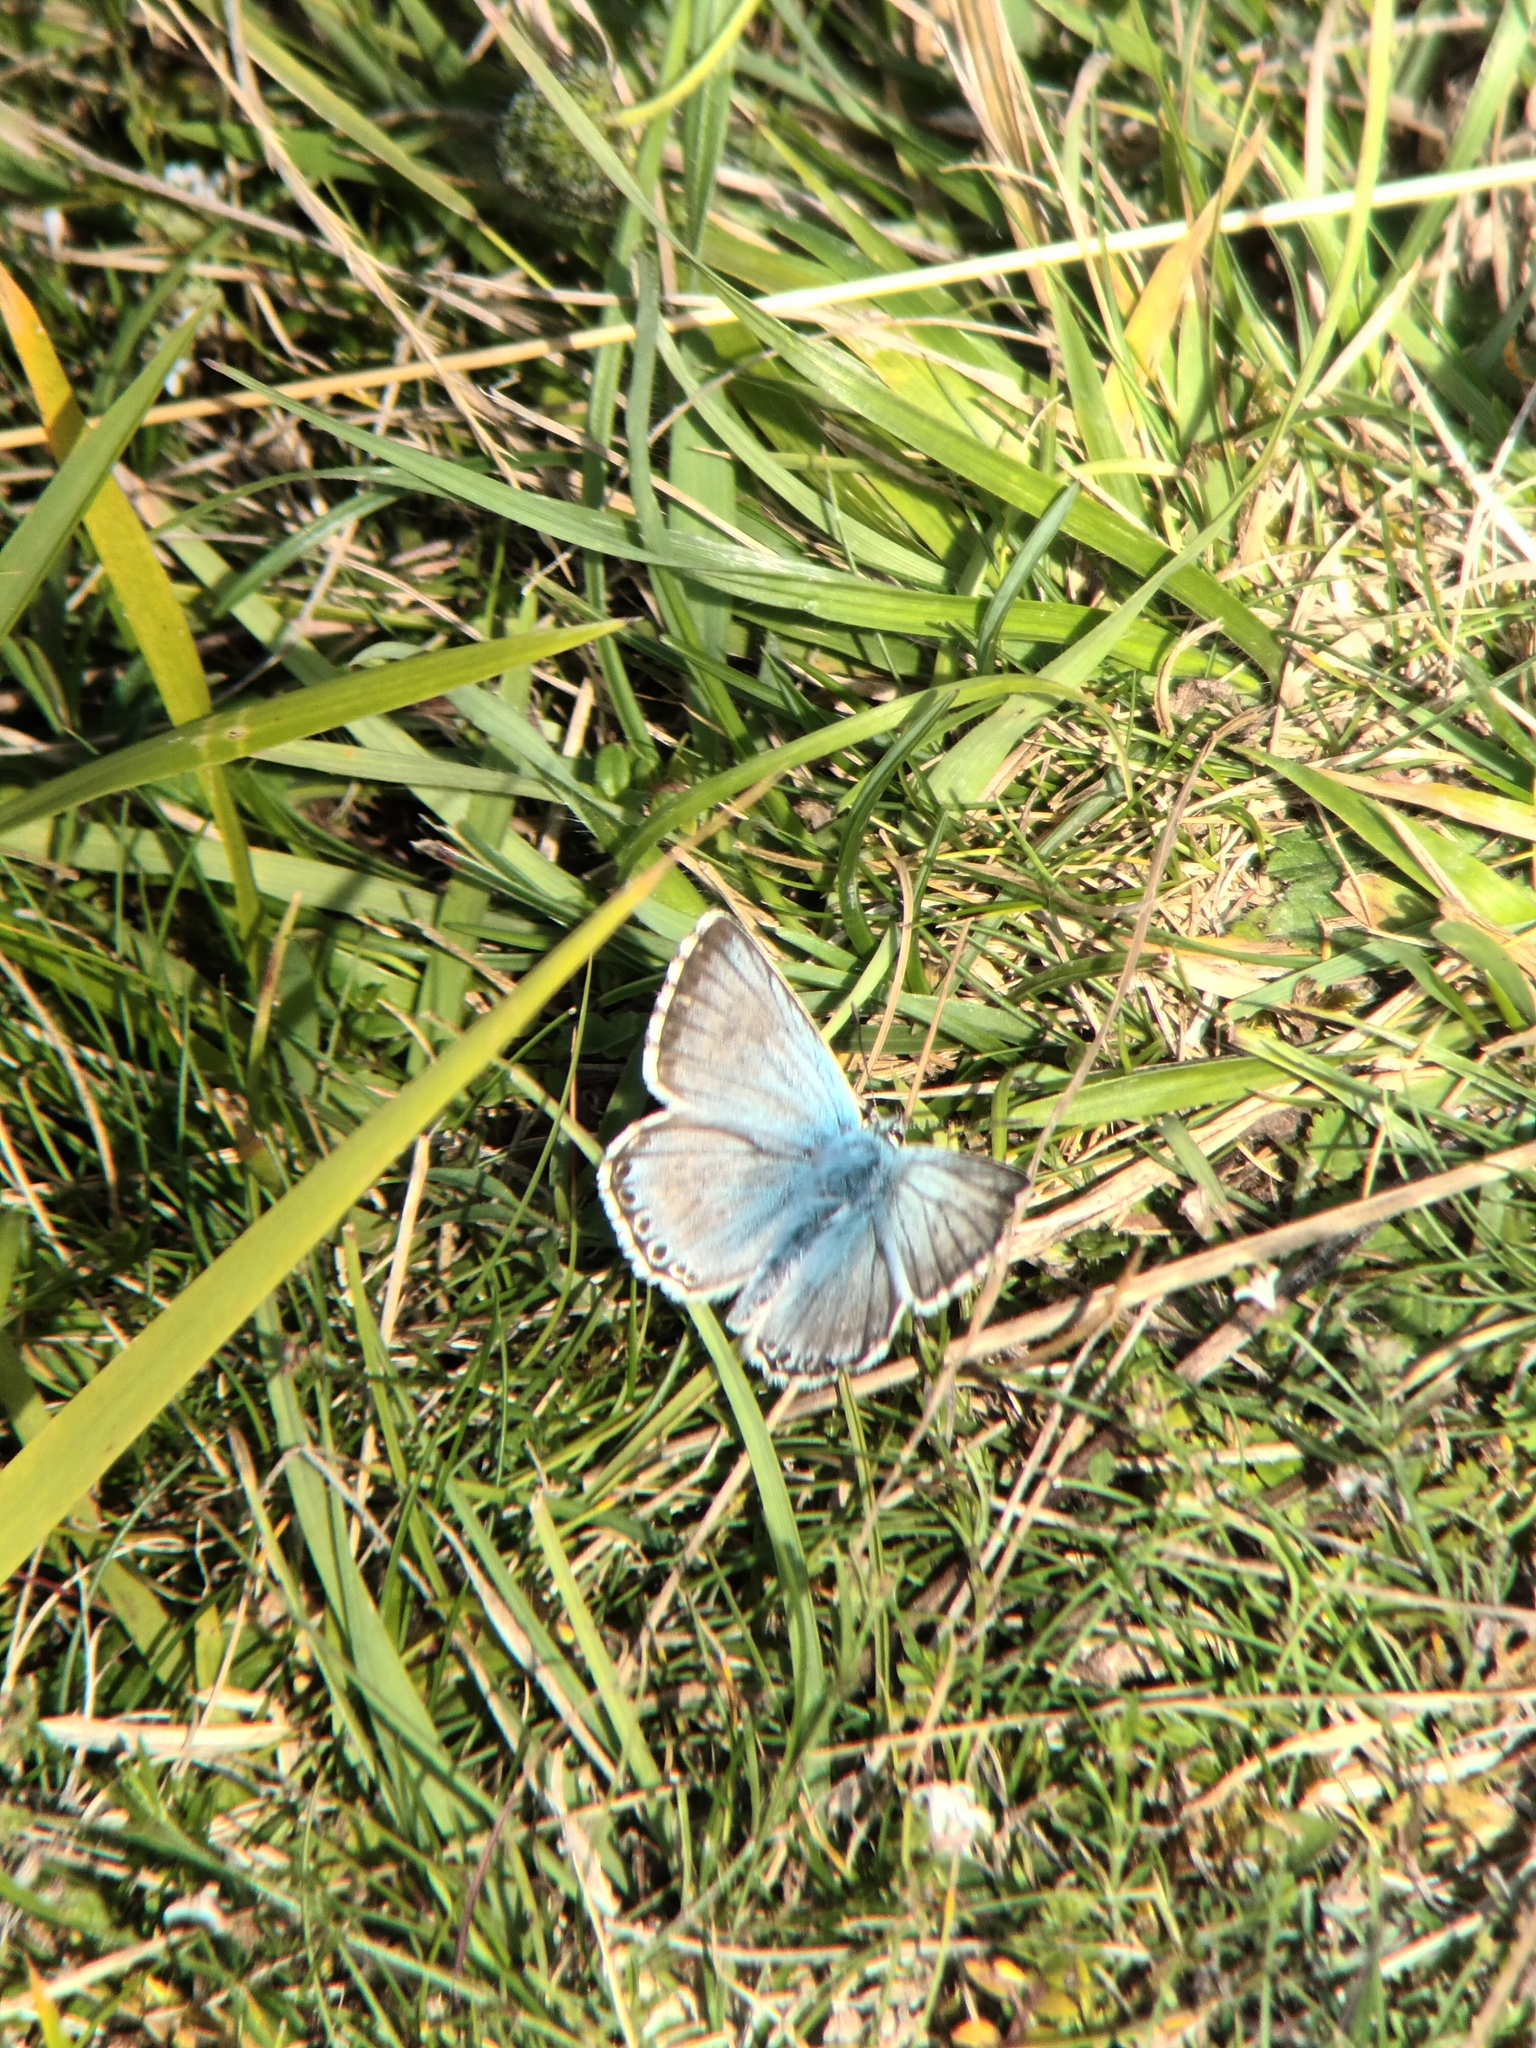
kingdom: Animalia
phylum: Arthropoda
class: Insecta
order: Lepidoptera
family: Lycaenidae
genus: Lysandra
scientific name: Lysandra coridon
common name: Chalkhill blue
